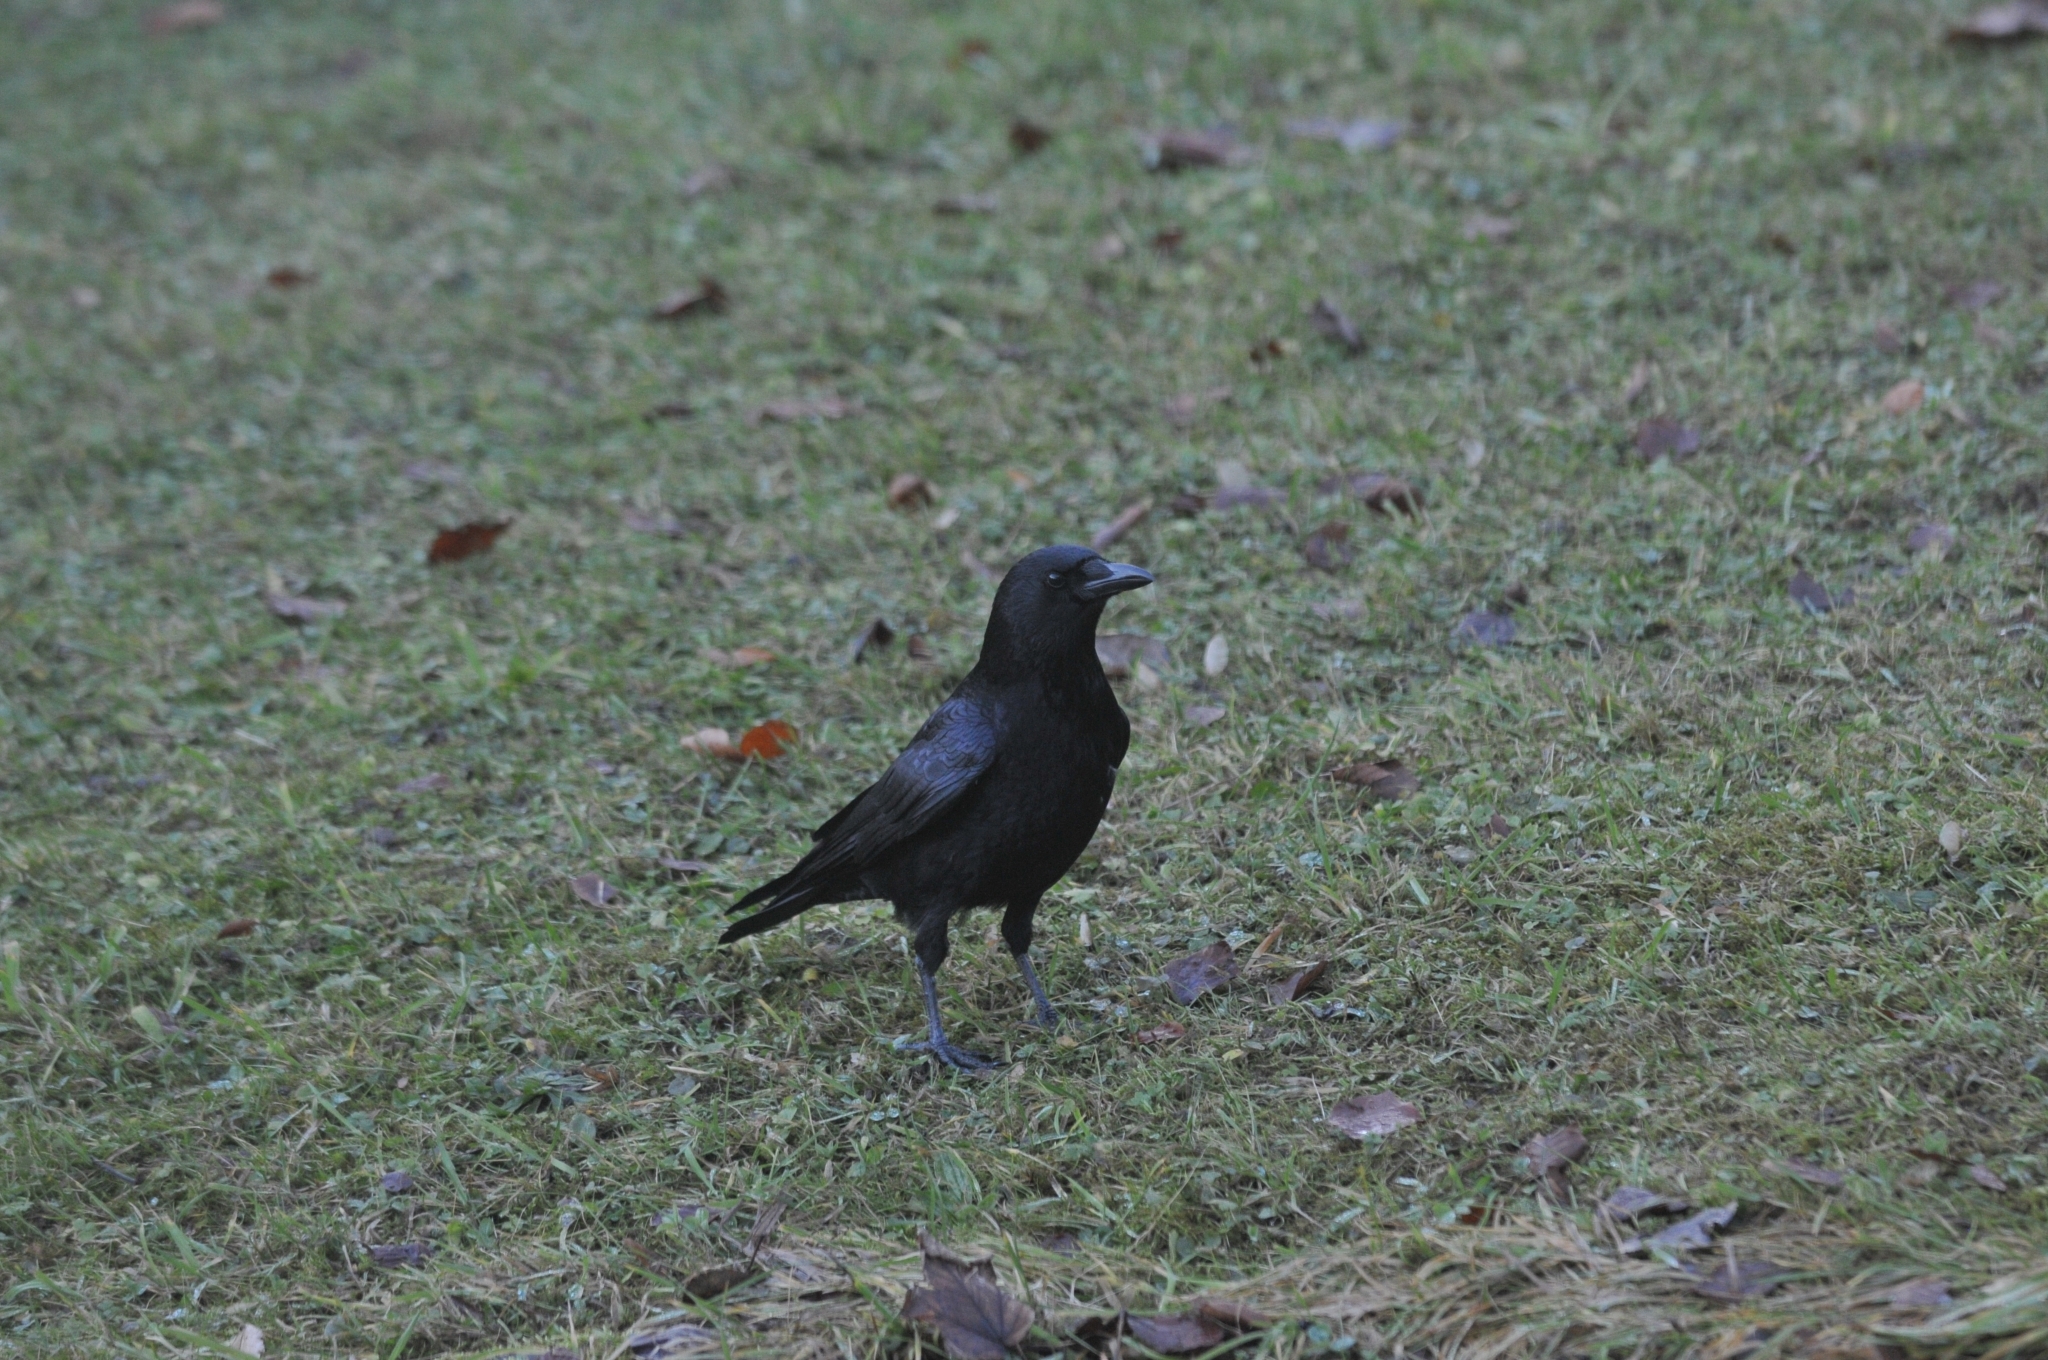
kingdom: Animalia
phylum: Chordata
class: Aves
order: Passeriformes
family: Corvidae
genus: Corvus
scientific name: Corvus corone
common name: Carrion crow
